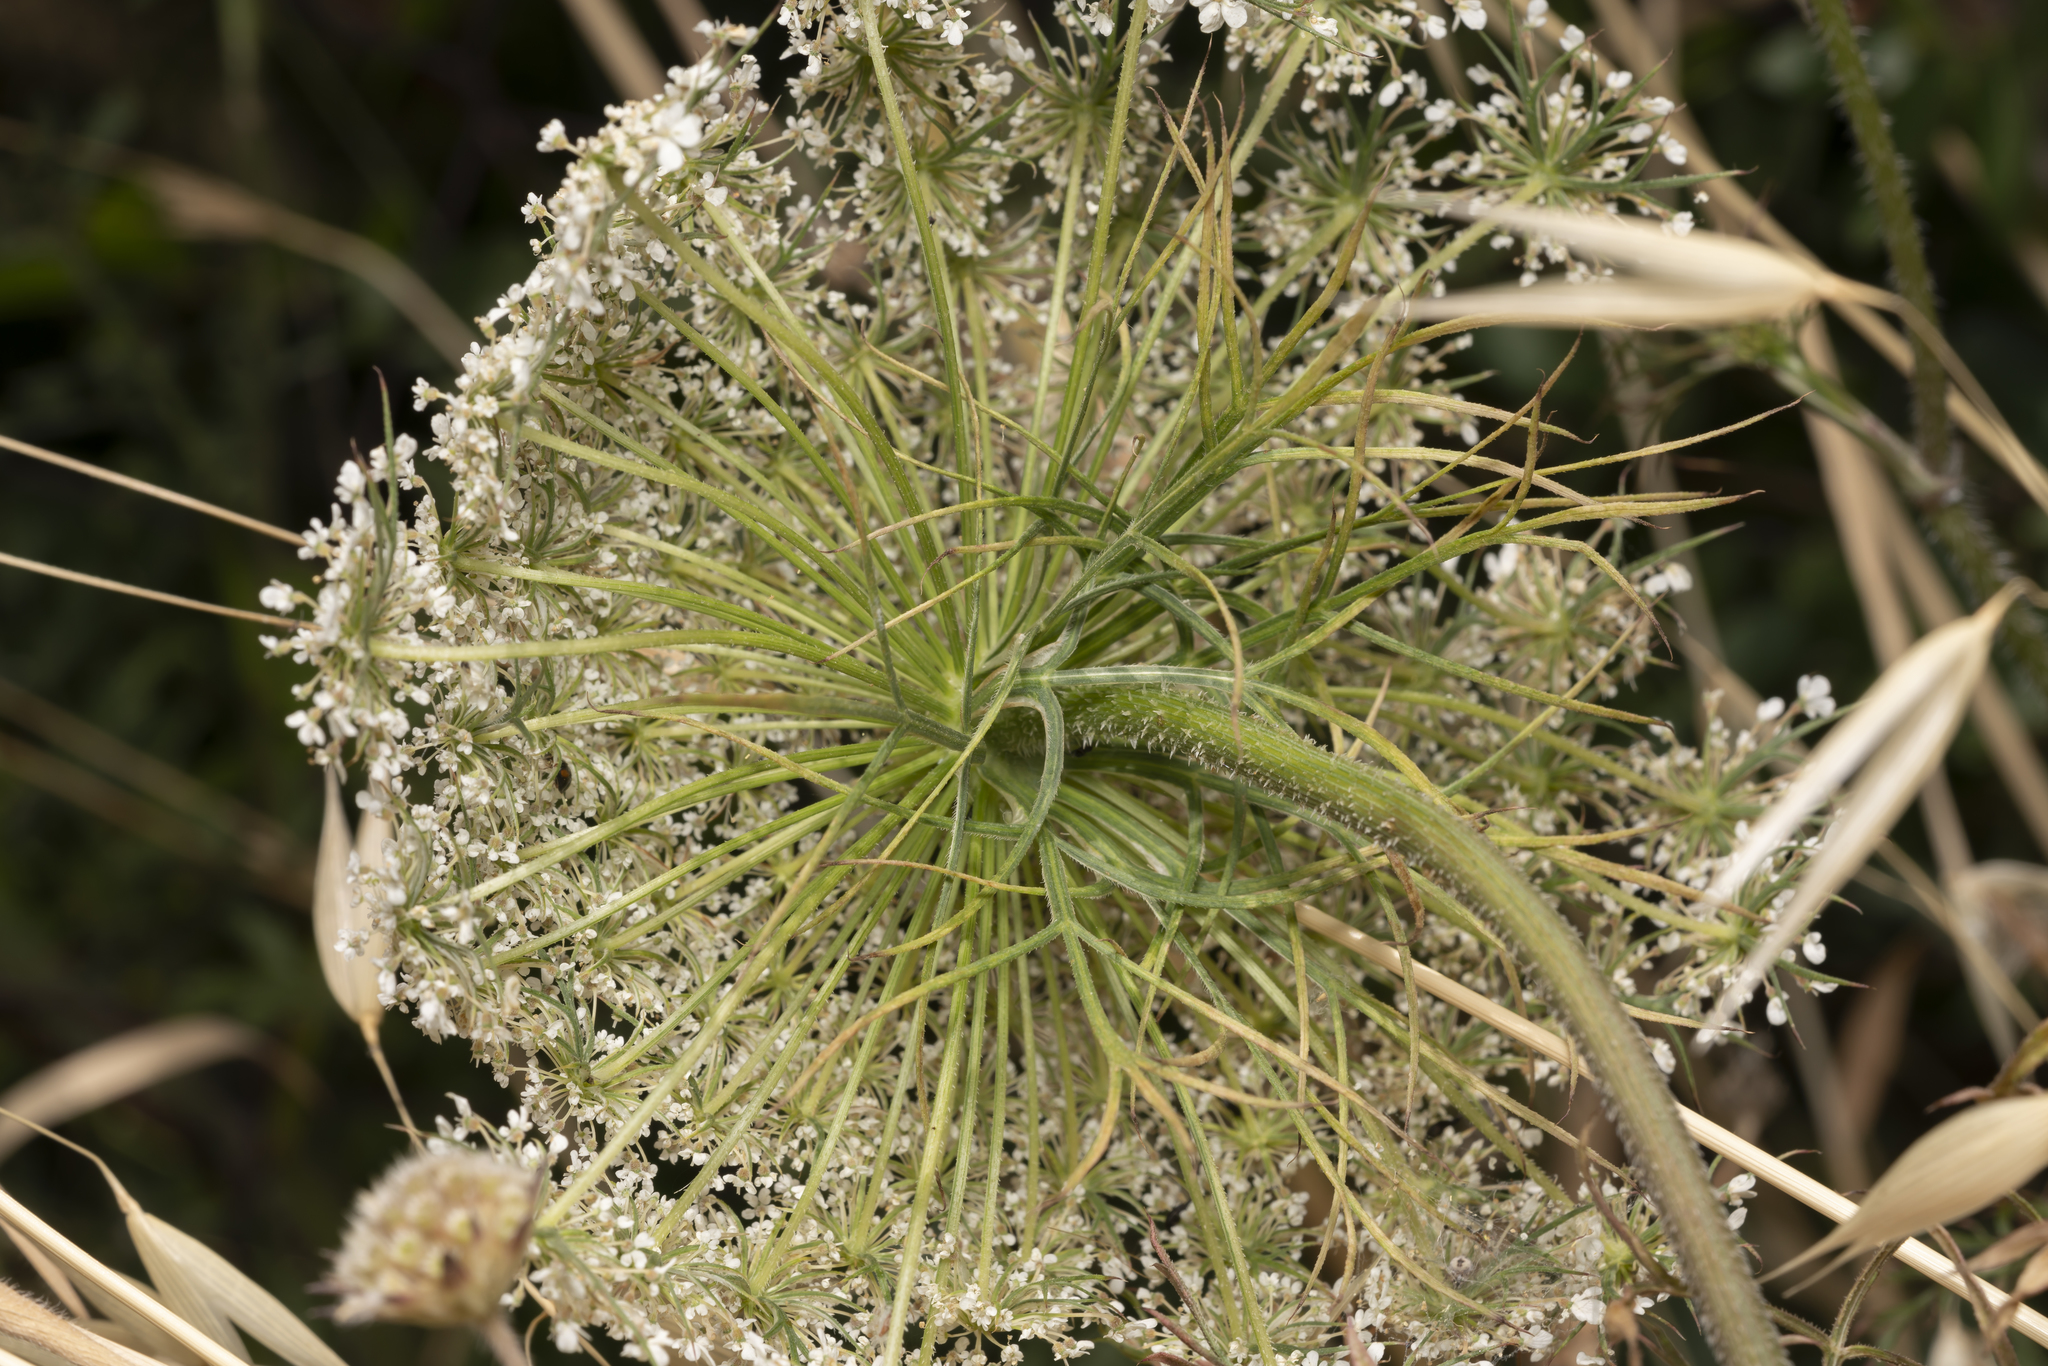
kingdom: Plantae
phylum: Tracheophyta
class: Magnoliopsida
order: Apiales
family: Apiaceae
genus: Daucus
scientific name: Daucus carota
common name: Wild carrot
